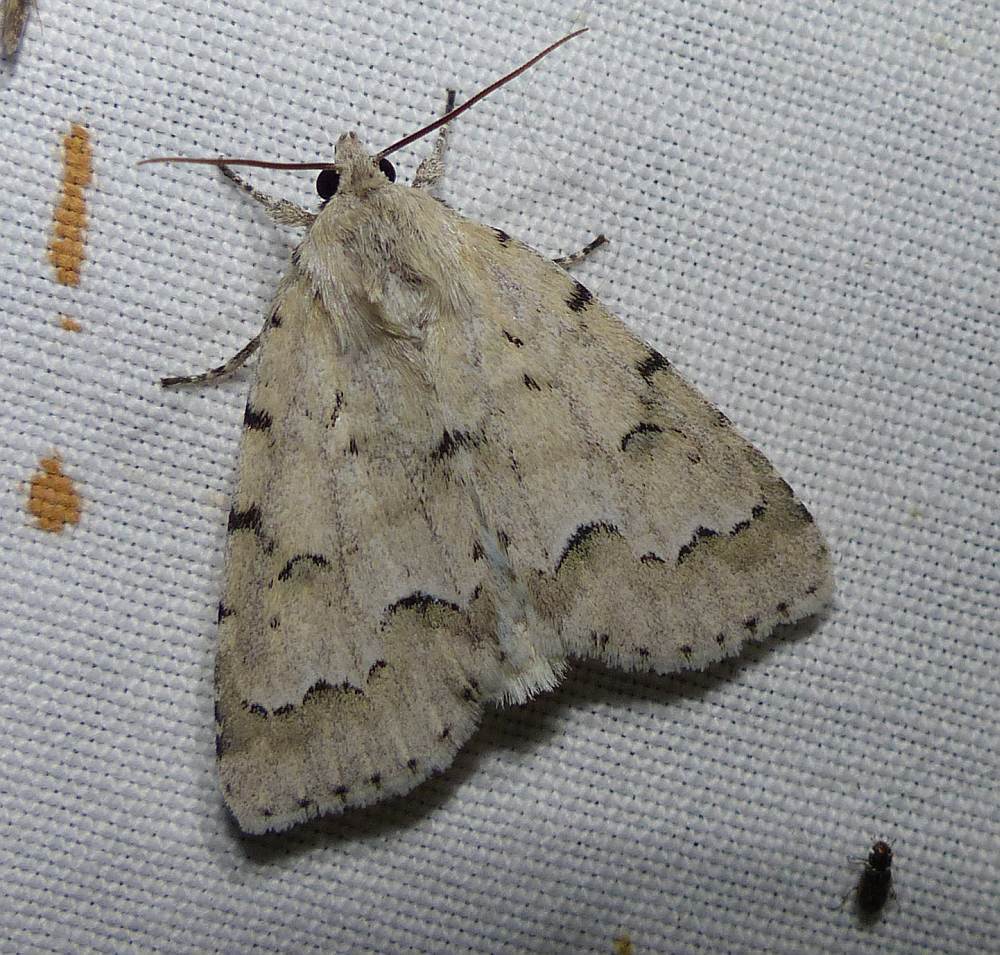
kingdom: Animalia
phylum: Arthropoda
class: Insecta
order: Lepidoptera
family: Noctuidae
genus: Acronicta
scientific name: Acronicta innotata
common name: Unmarked dagger
